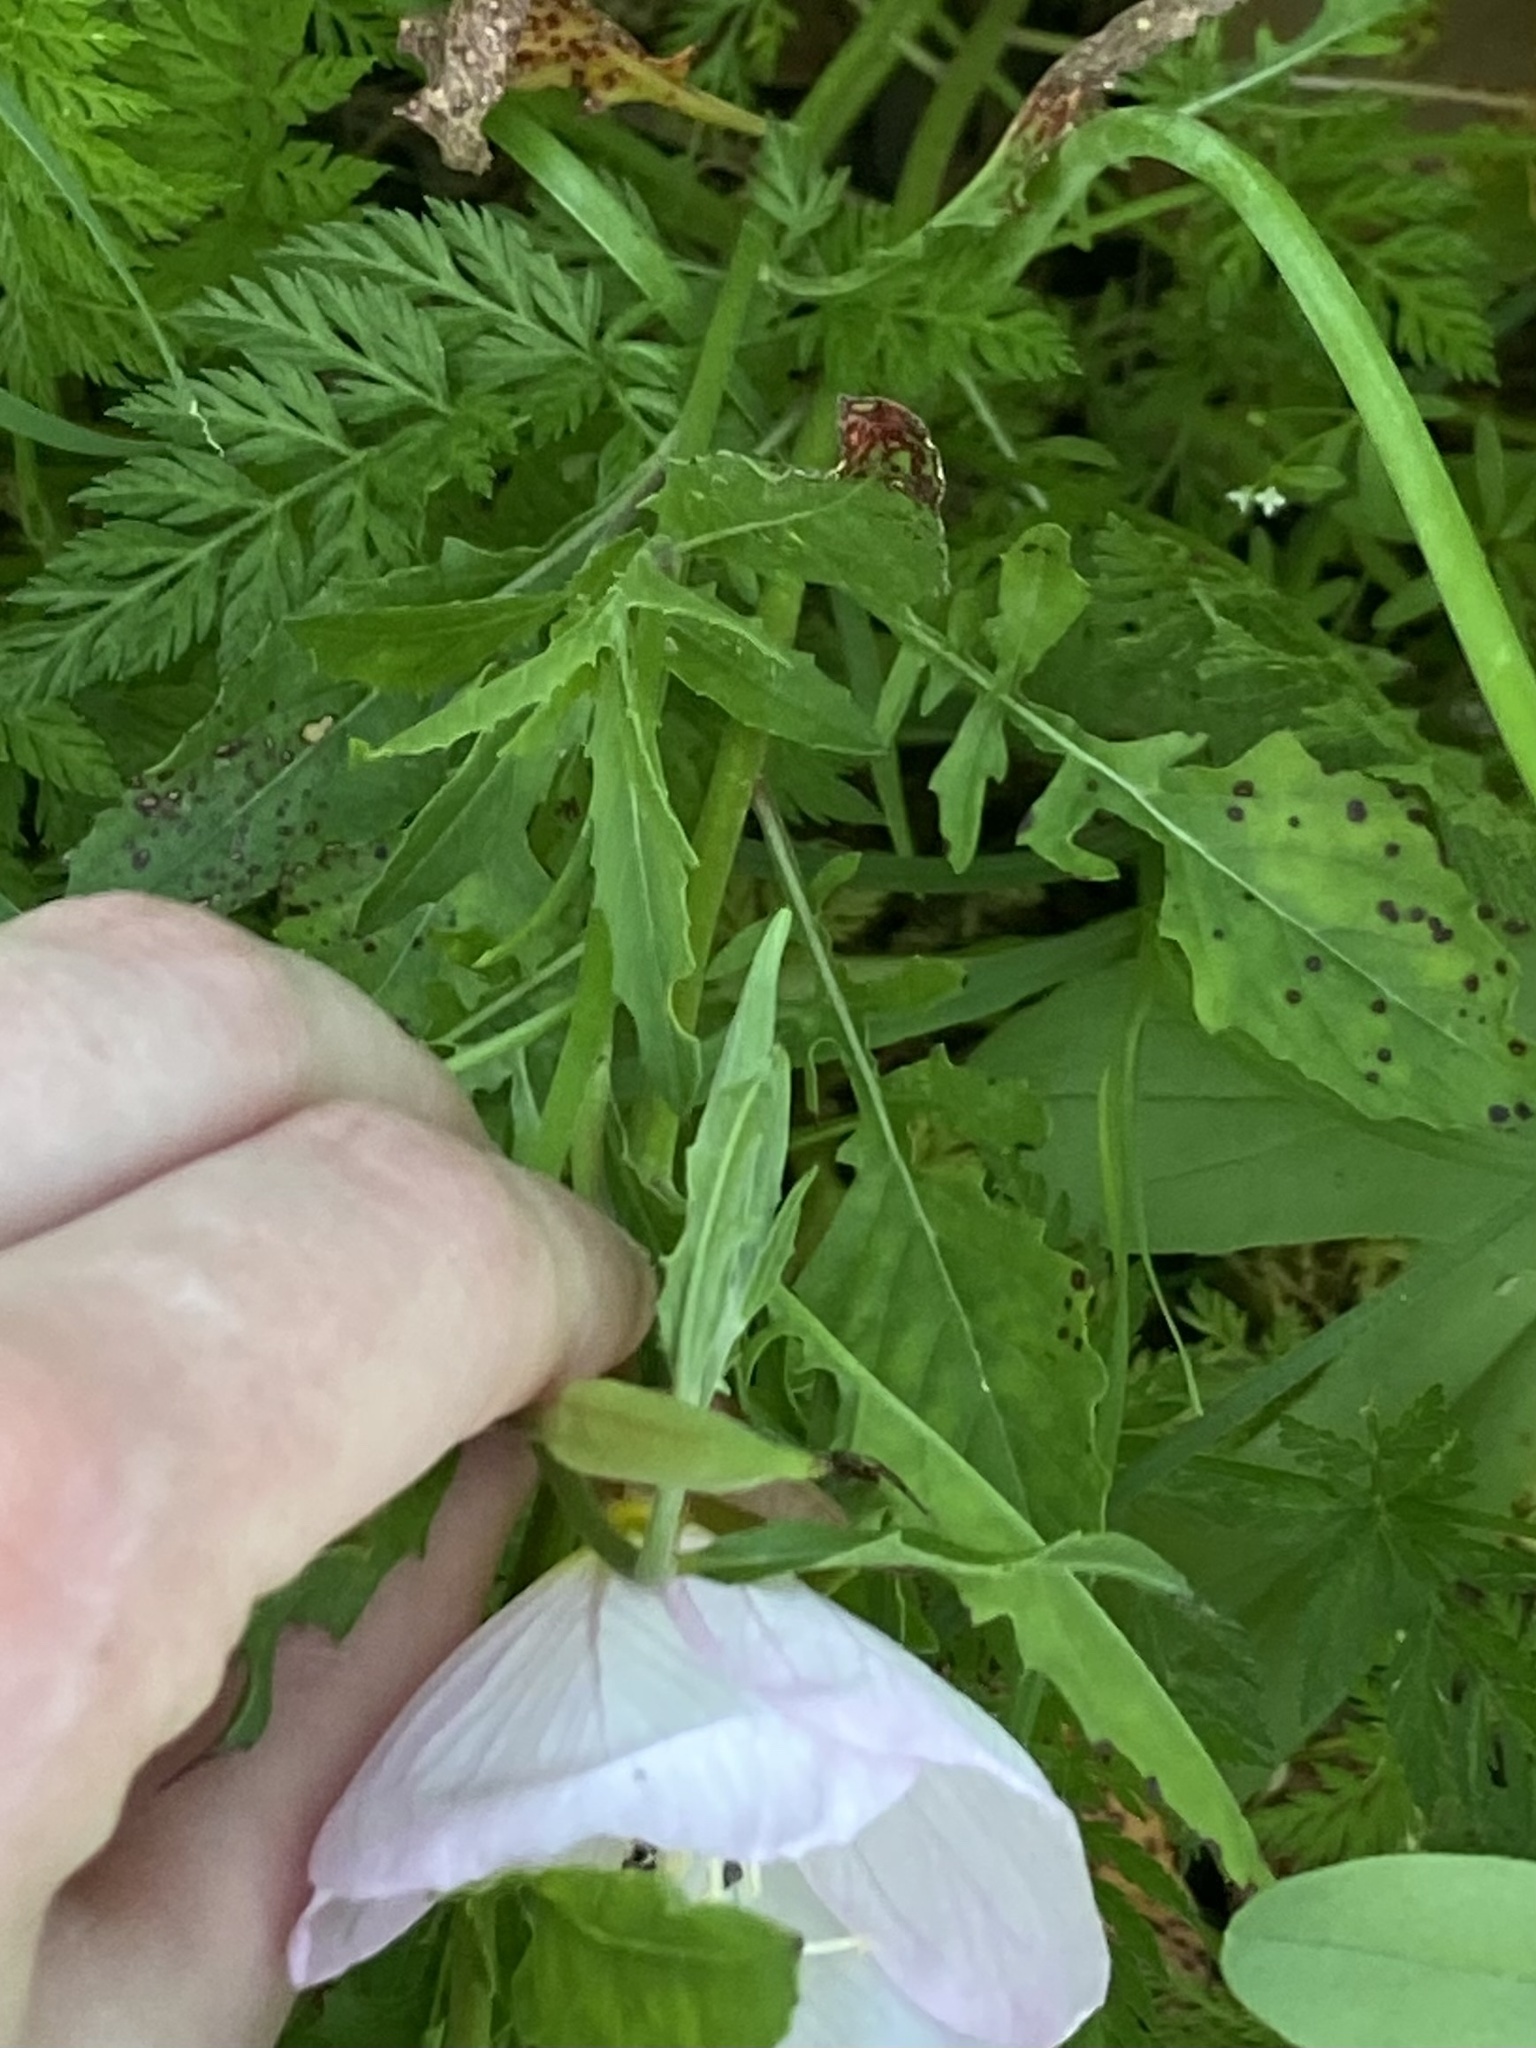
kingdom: Plantae
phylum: Tracheophyta
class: Magnoliopsida
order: Myrtales
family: Onagraceae
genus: Oenothera
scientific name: Oenothera speciosa
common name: White evening-primrose
